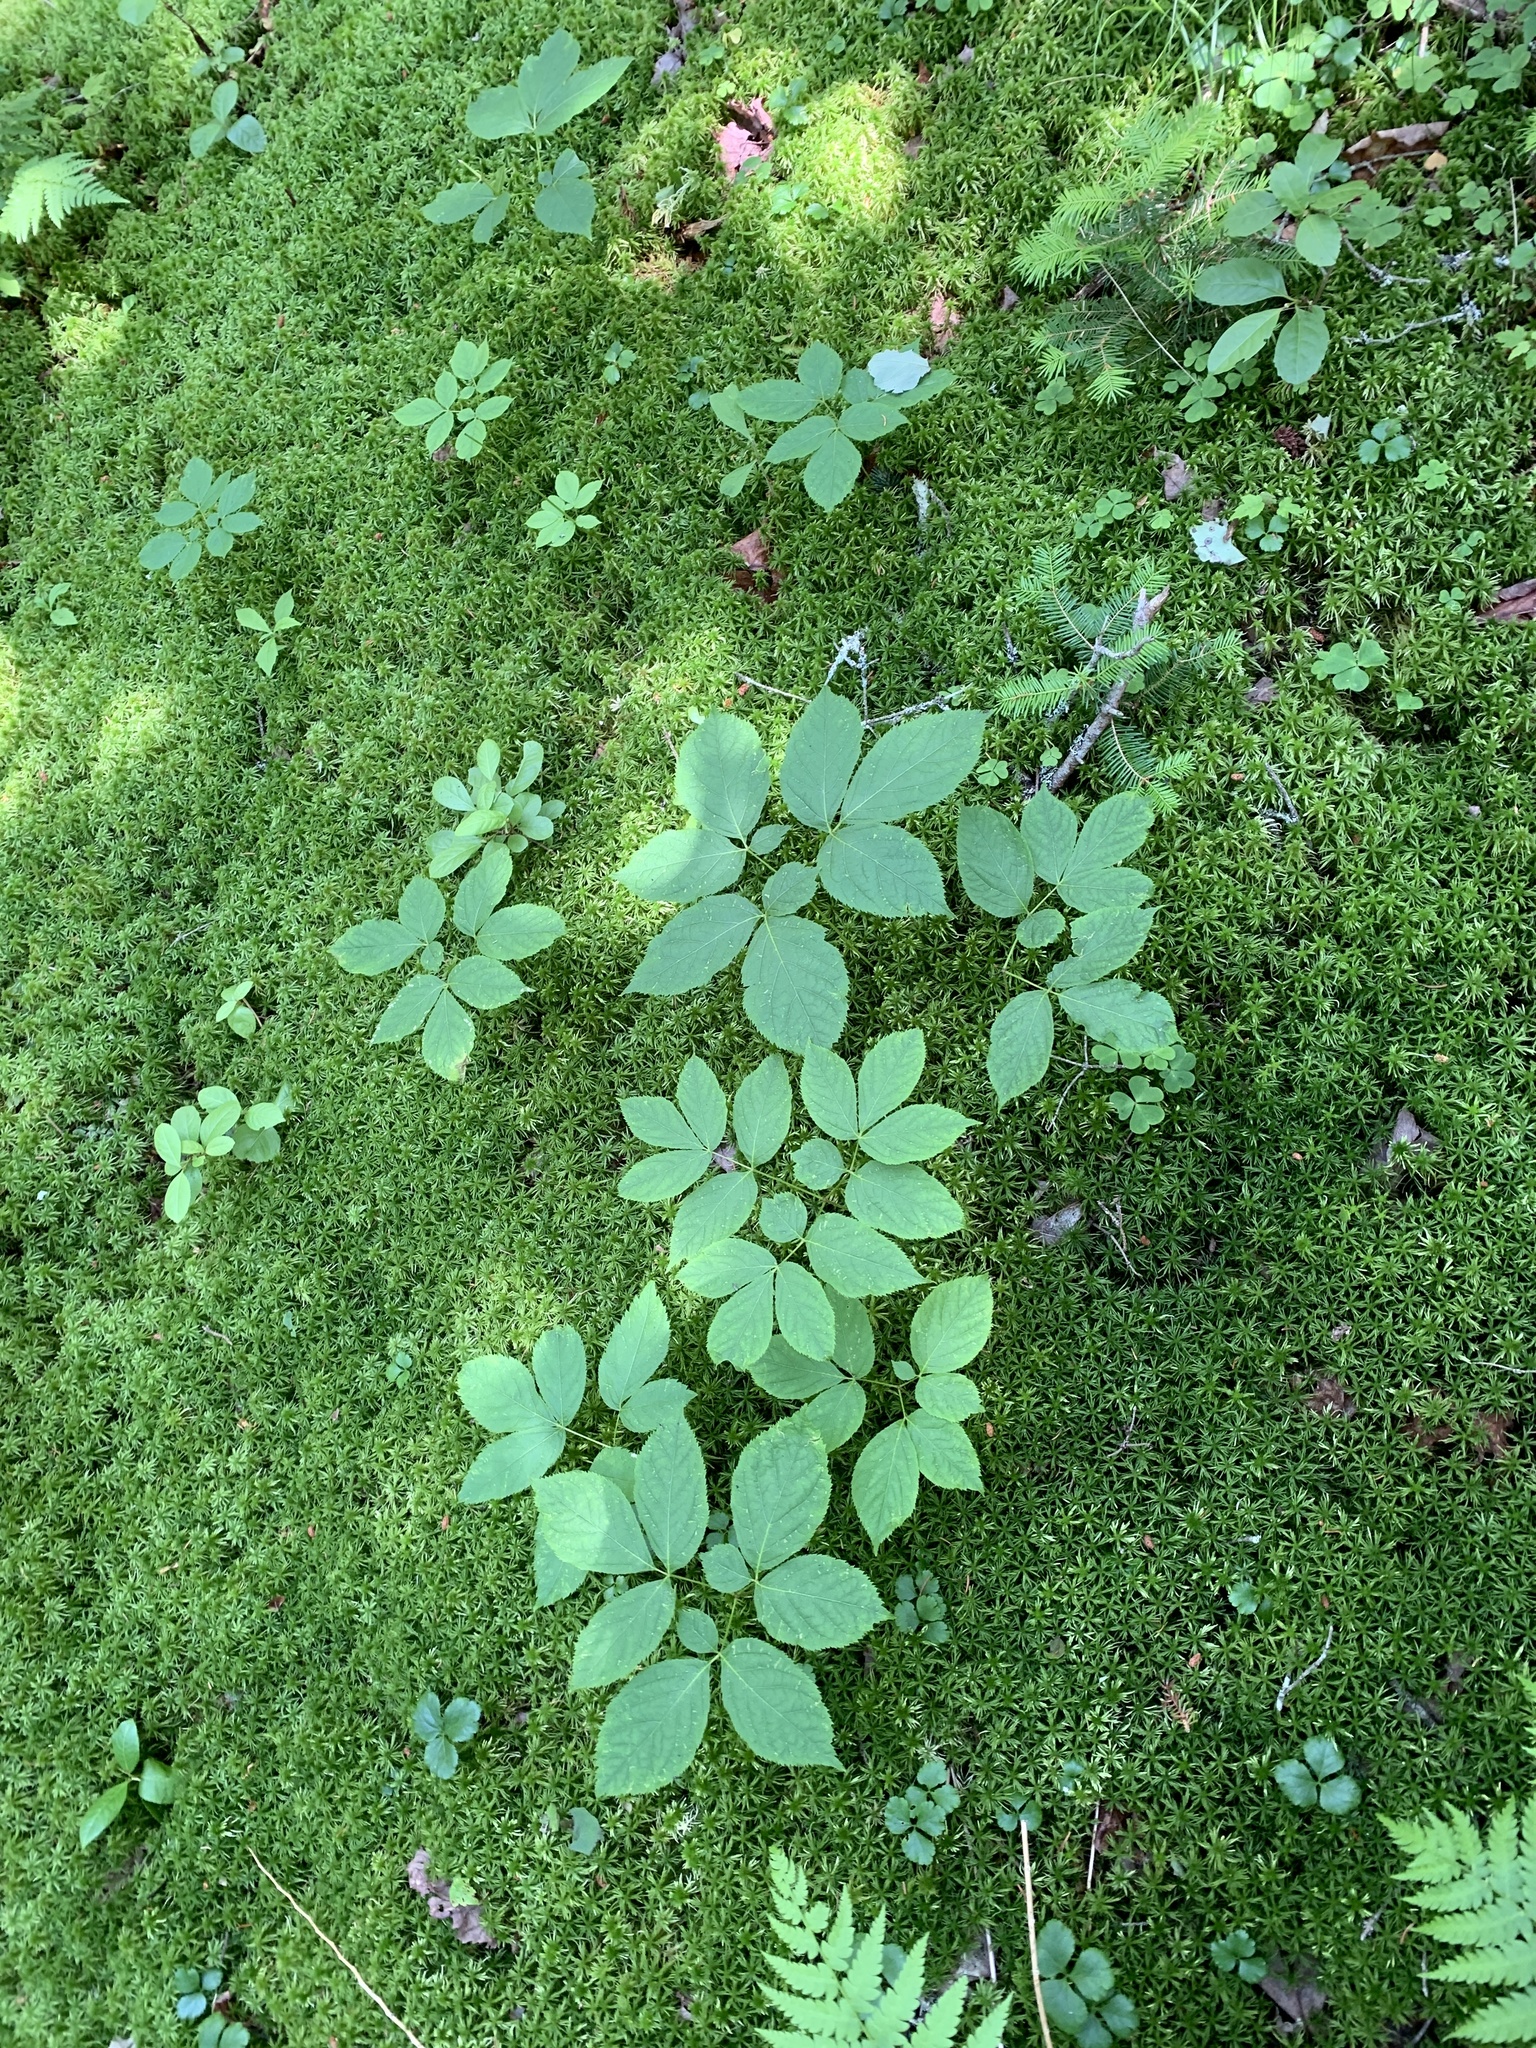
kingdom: Plantae
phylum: Tracheophyta
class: Magnoliopsida
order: Apiales
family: Araliaceae
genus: Aralia
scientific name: Aralia nudicaulis
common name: Wild sarsaparilla
